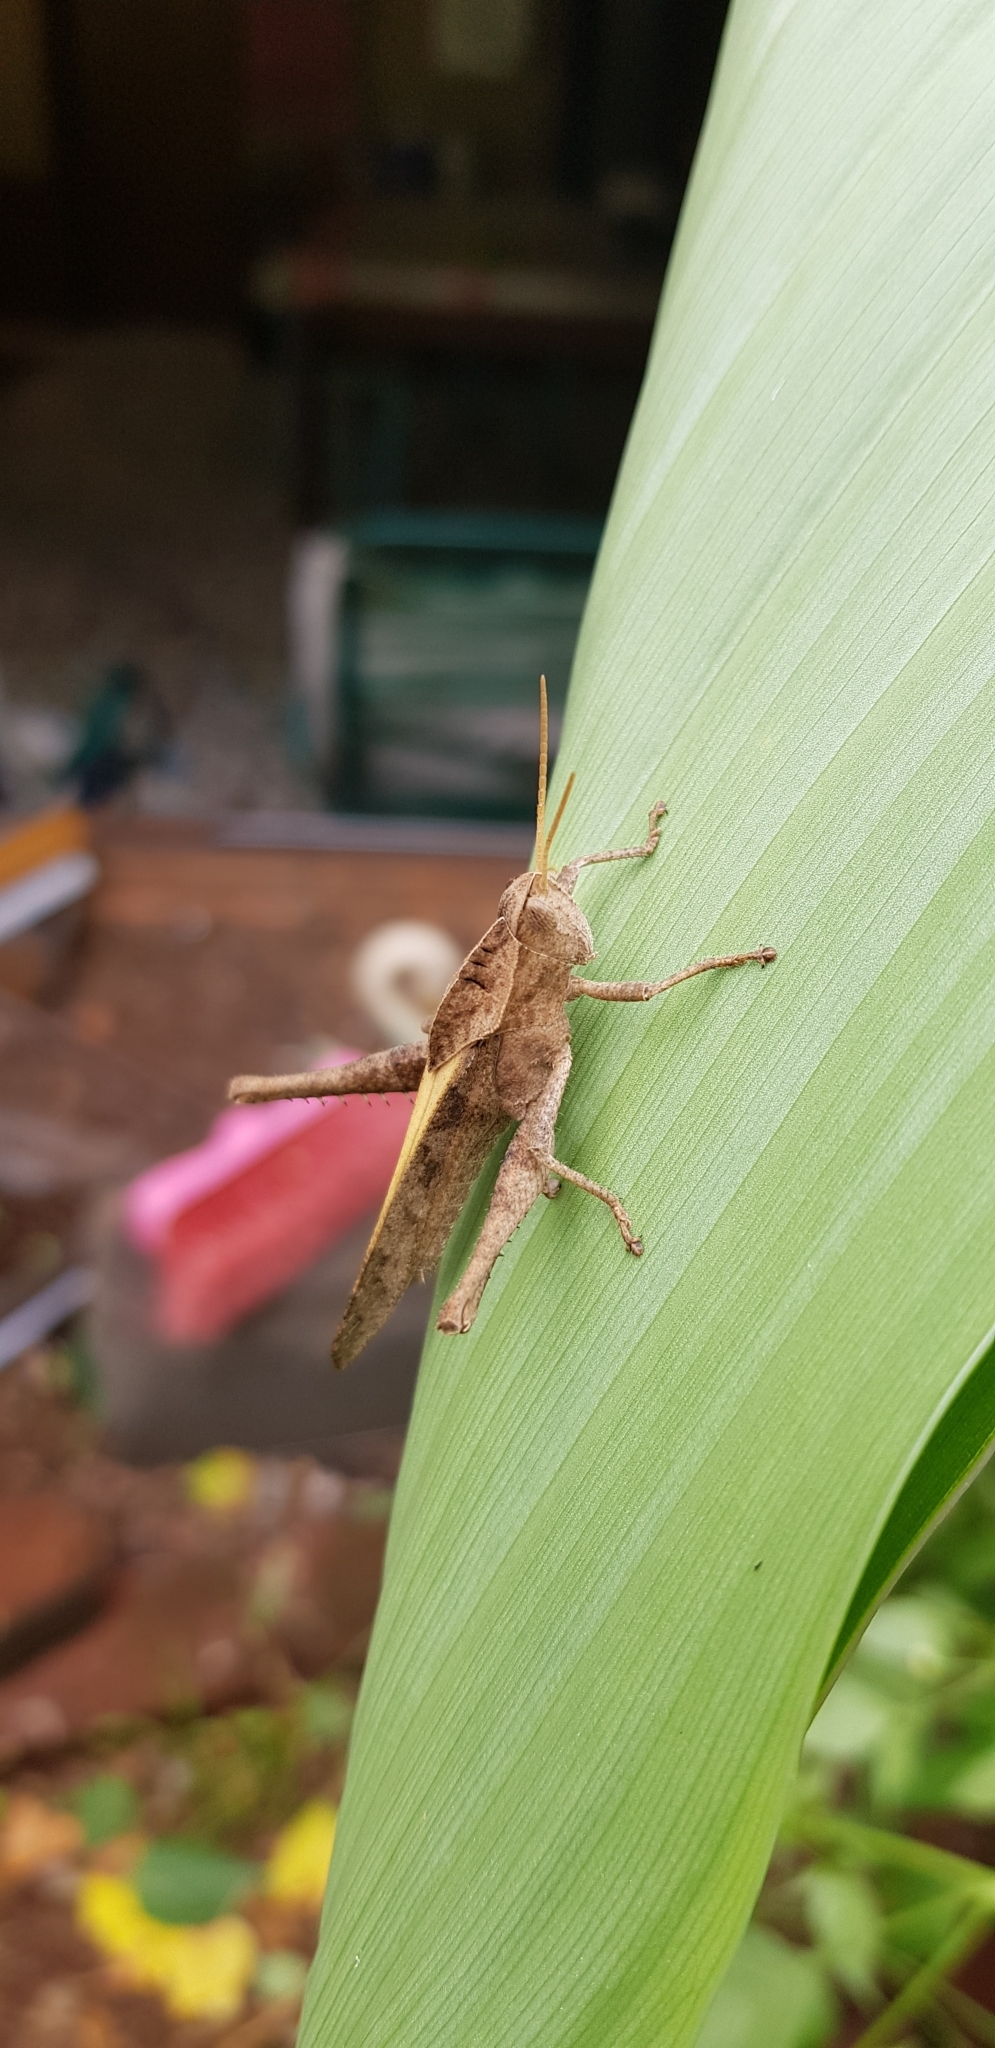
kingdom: Animalia
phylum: Arthropoda
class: Insecta
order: Orthoptera
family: Romaleidae
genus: Xyleus
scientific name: Xyleus discoideus
